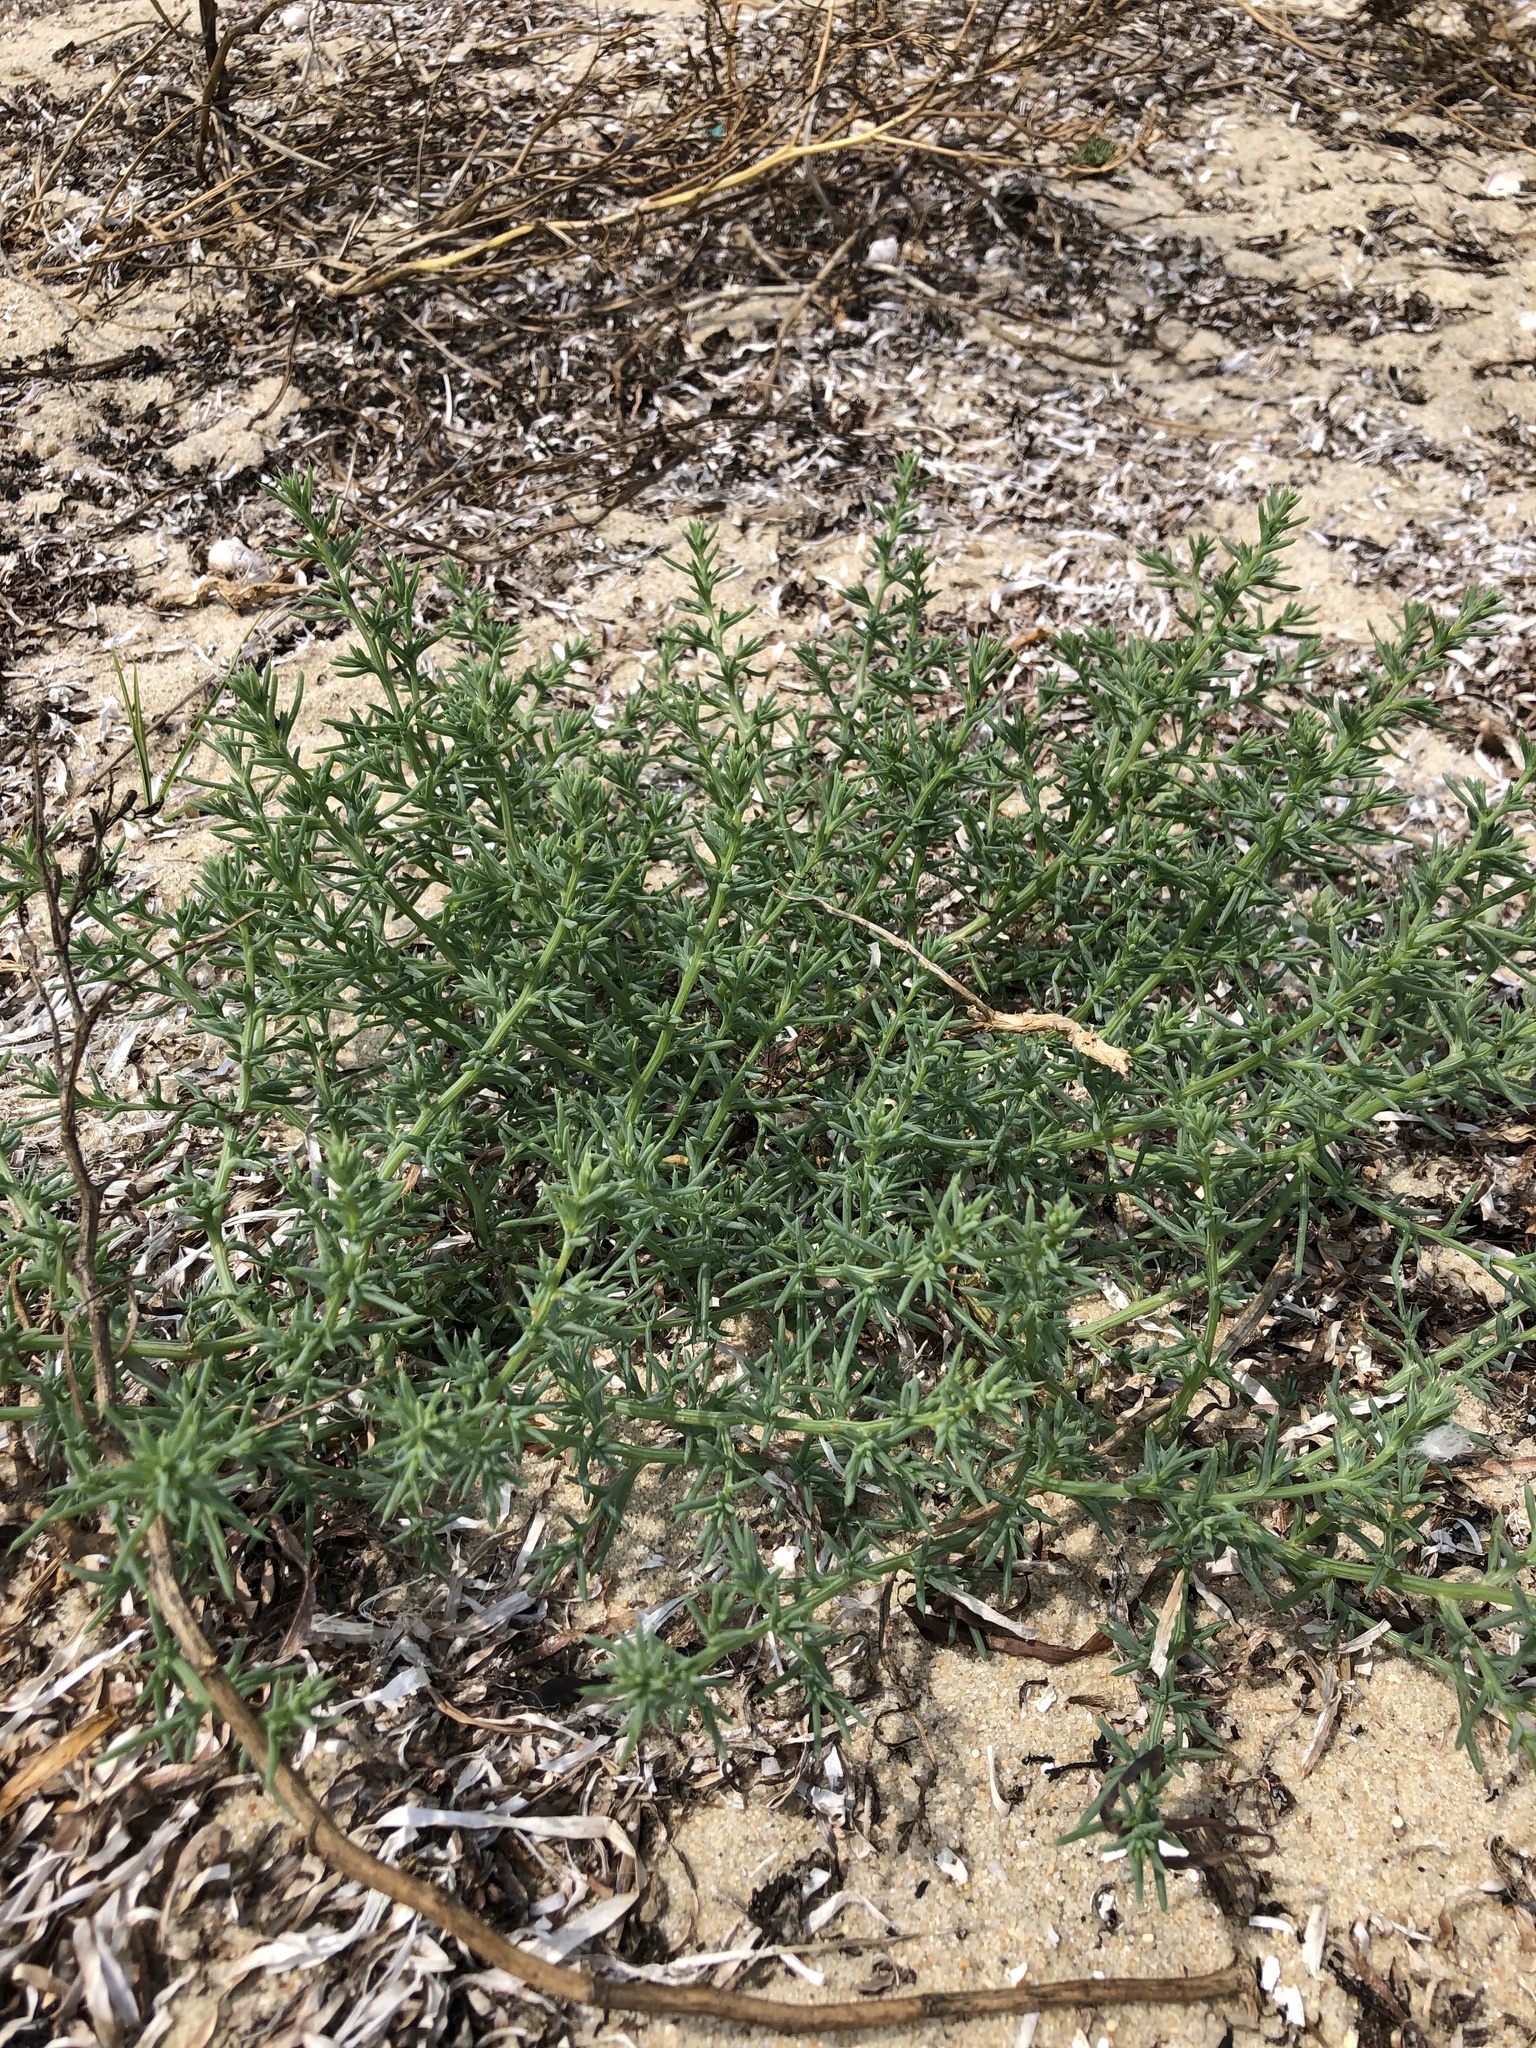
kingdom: Plantae
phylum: Tracheophyta
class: Magnoliopsida
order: Caryophyllales
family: Amaranthaceae
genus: Salsola
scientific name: Salsola kali
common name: Saltwort
